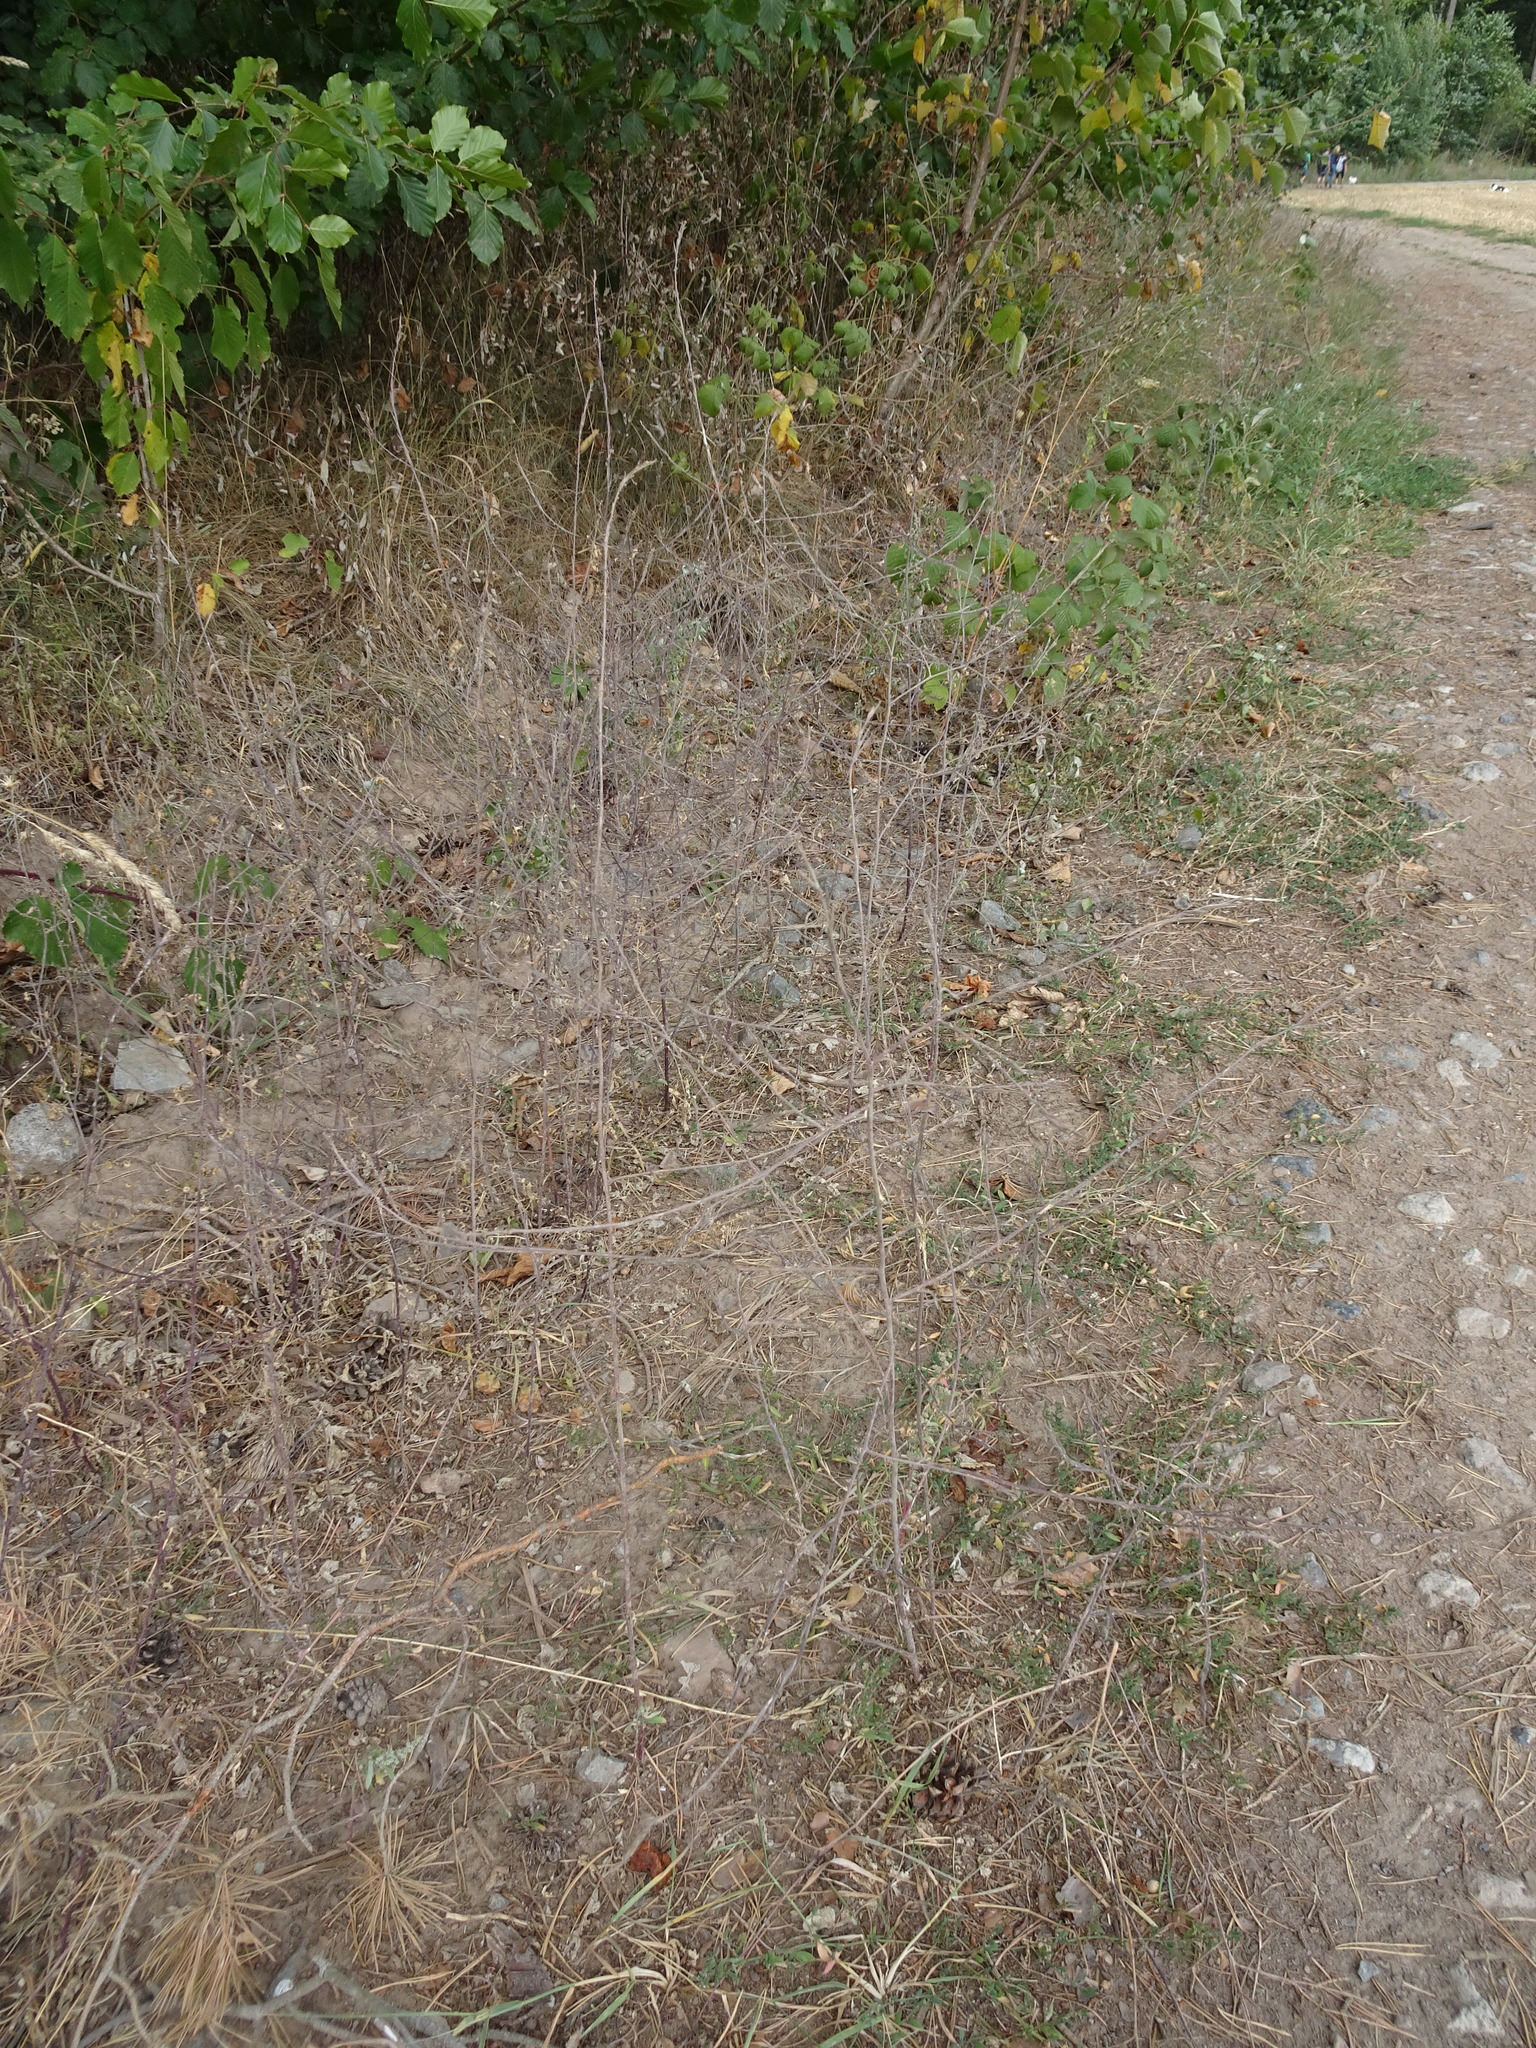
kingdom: Plantae
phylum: Tracheophyta
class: Magnoliopsida
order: Brassicales
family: Brassicaceae
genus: Sisymbrium
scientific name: Sisymbrium officinale
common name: Hedge mustard
